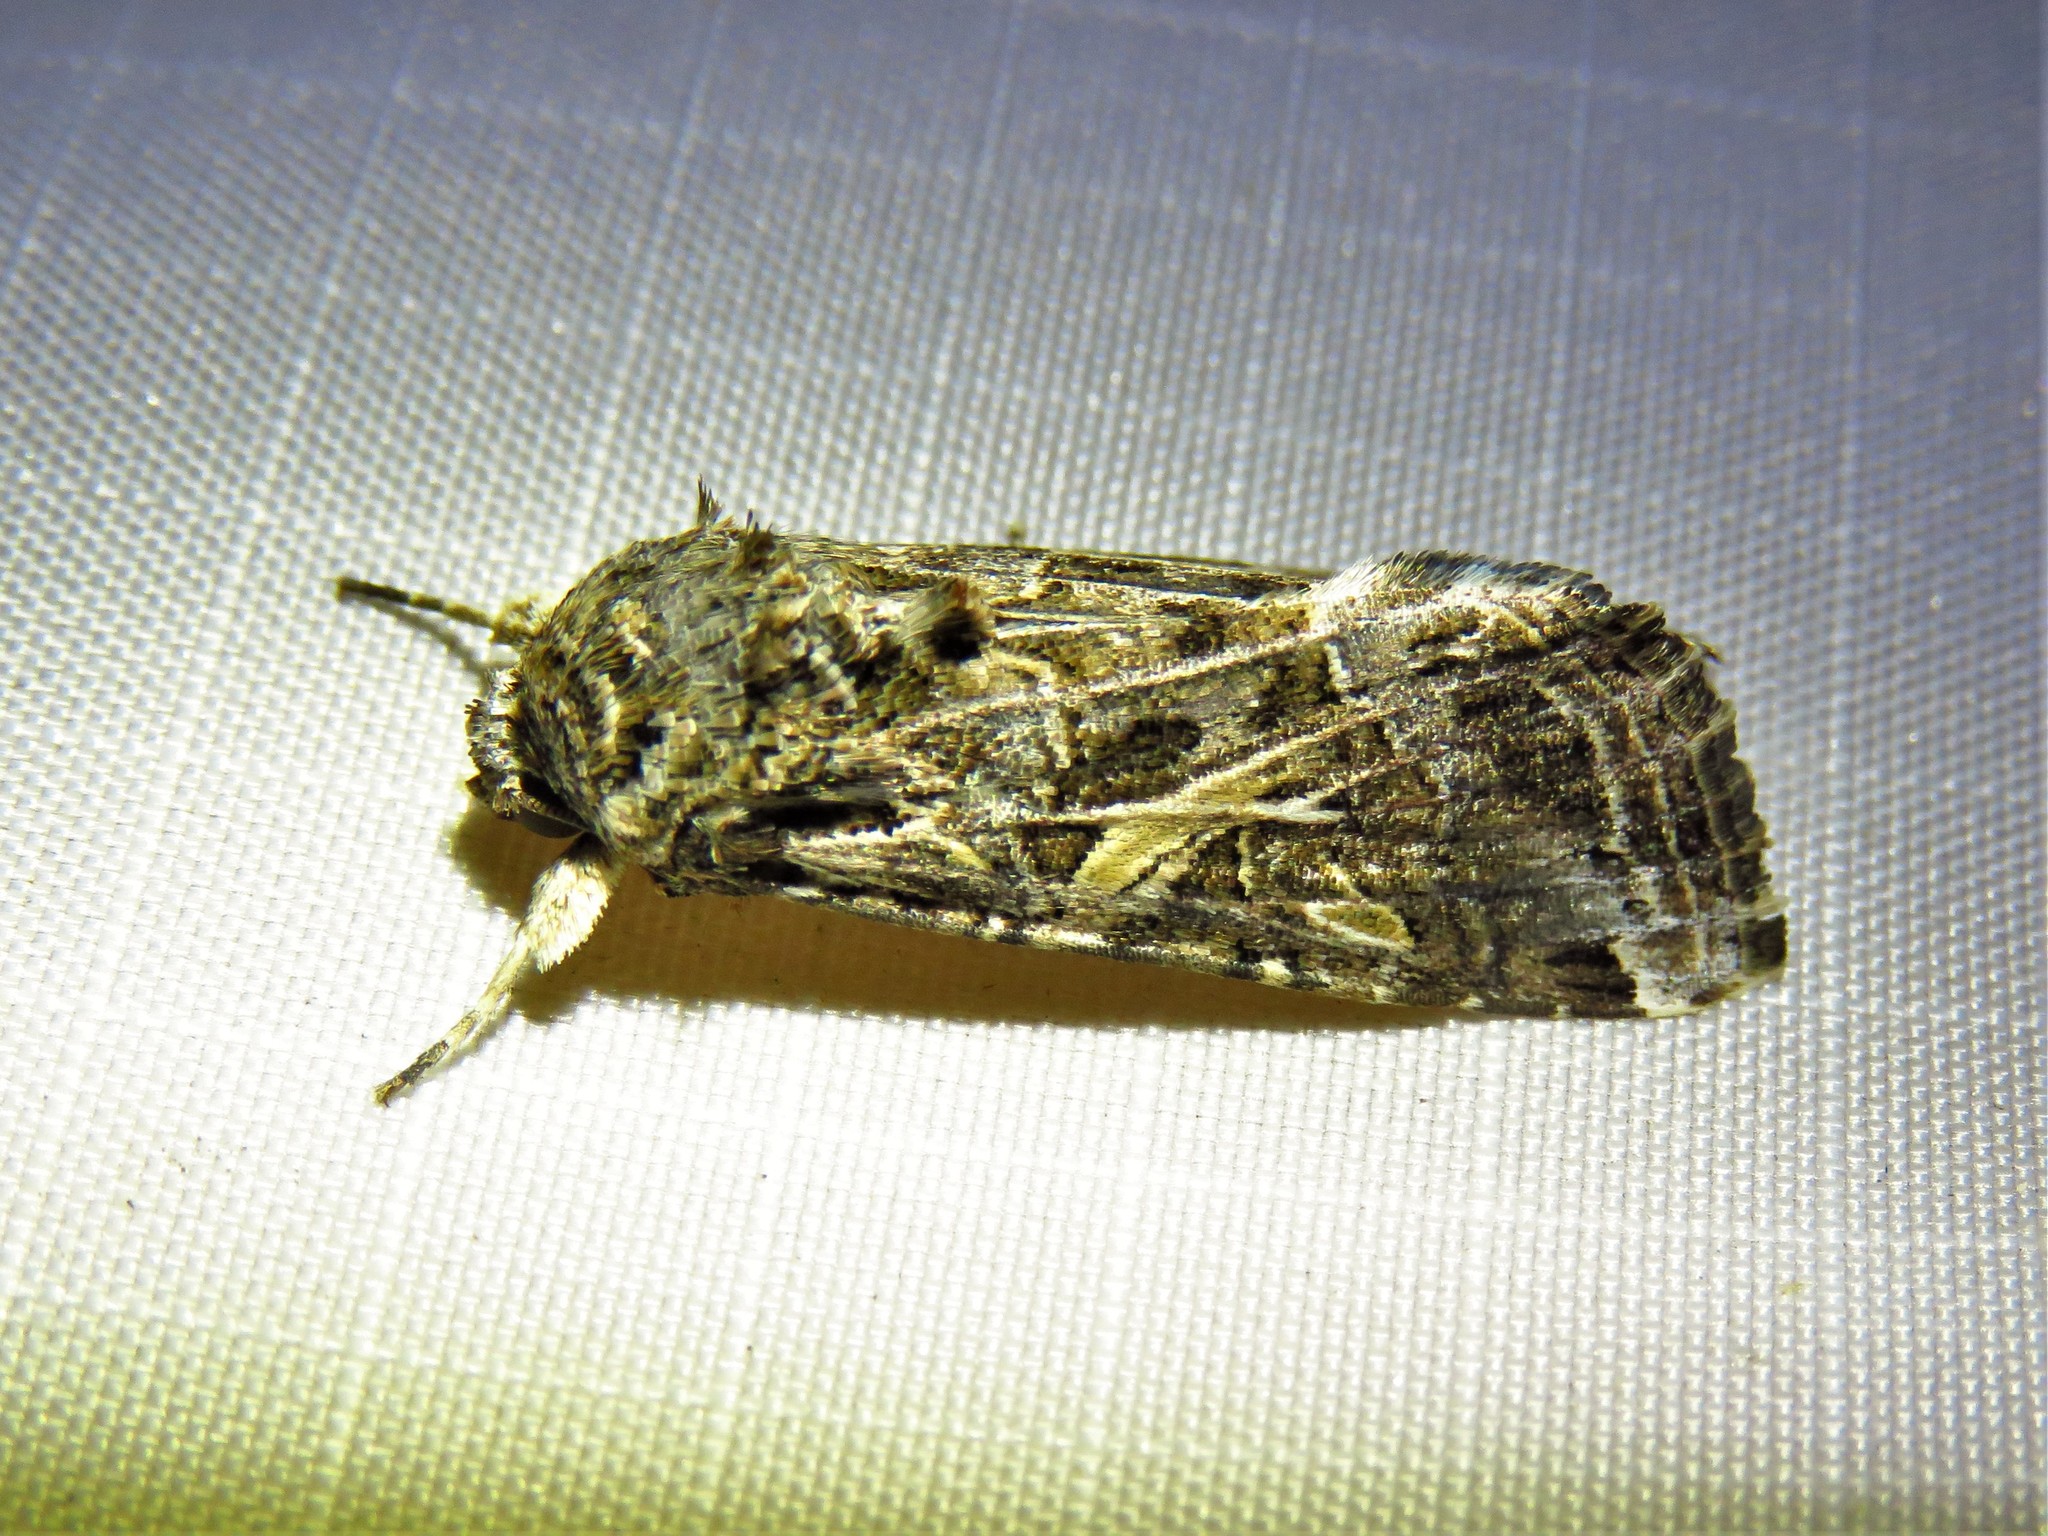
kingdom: Animalia
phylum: Arthropoda
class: Insecta
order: Lepidoptera
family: Noctuidae
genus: Spodoptera
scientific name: Spodoptera ornithogalli
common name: Yellow-striped armyworm
